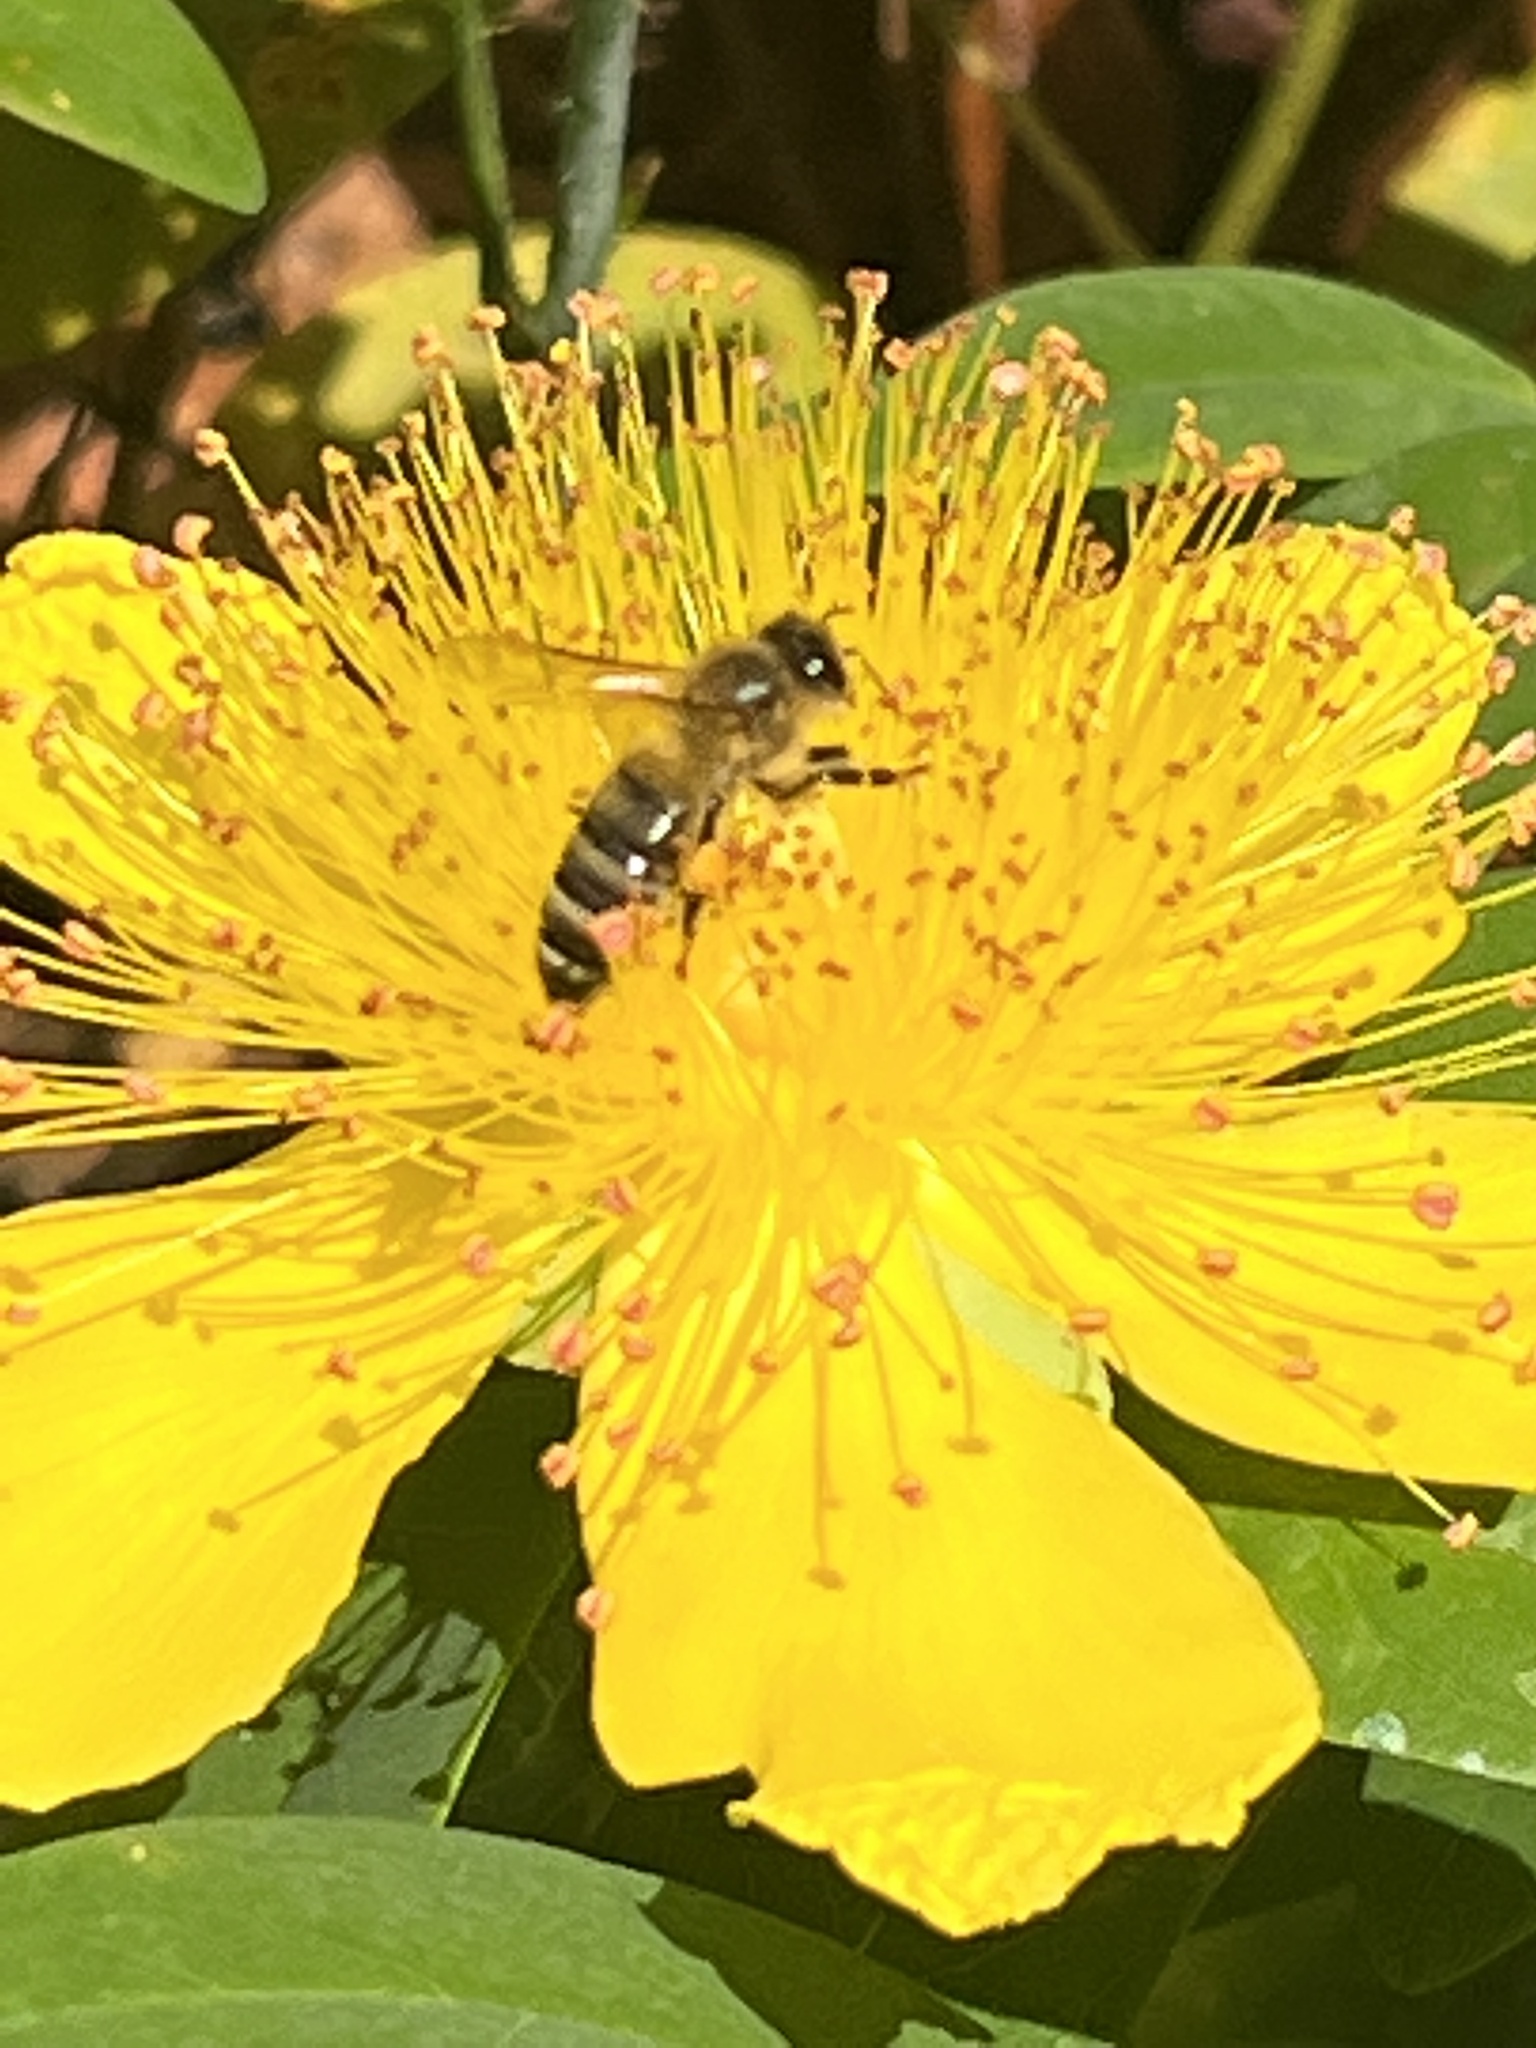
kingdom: Animalia
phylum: Arthropoda
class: Insecta
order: Hymenoptera
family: Apidae
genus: Apis
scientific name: Apis mellifera
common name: Honey bee
